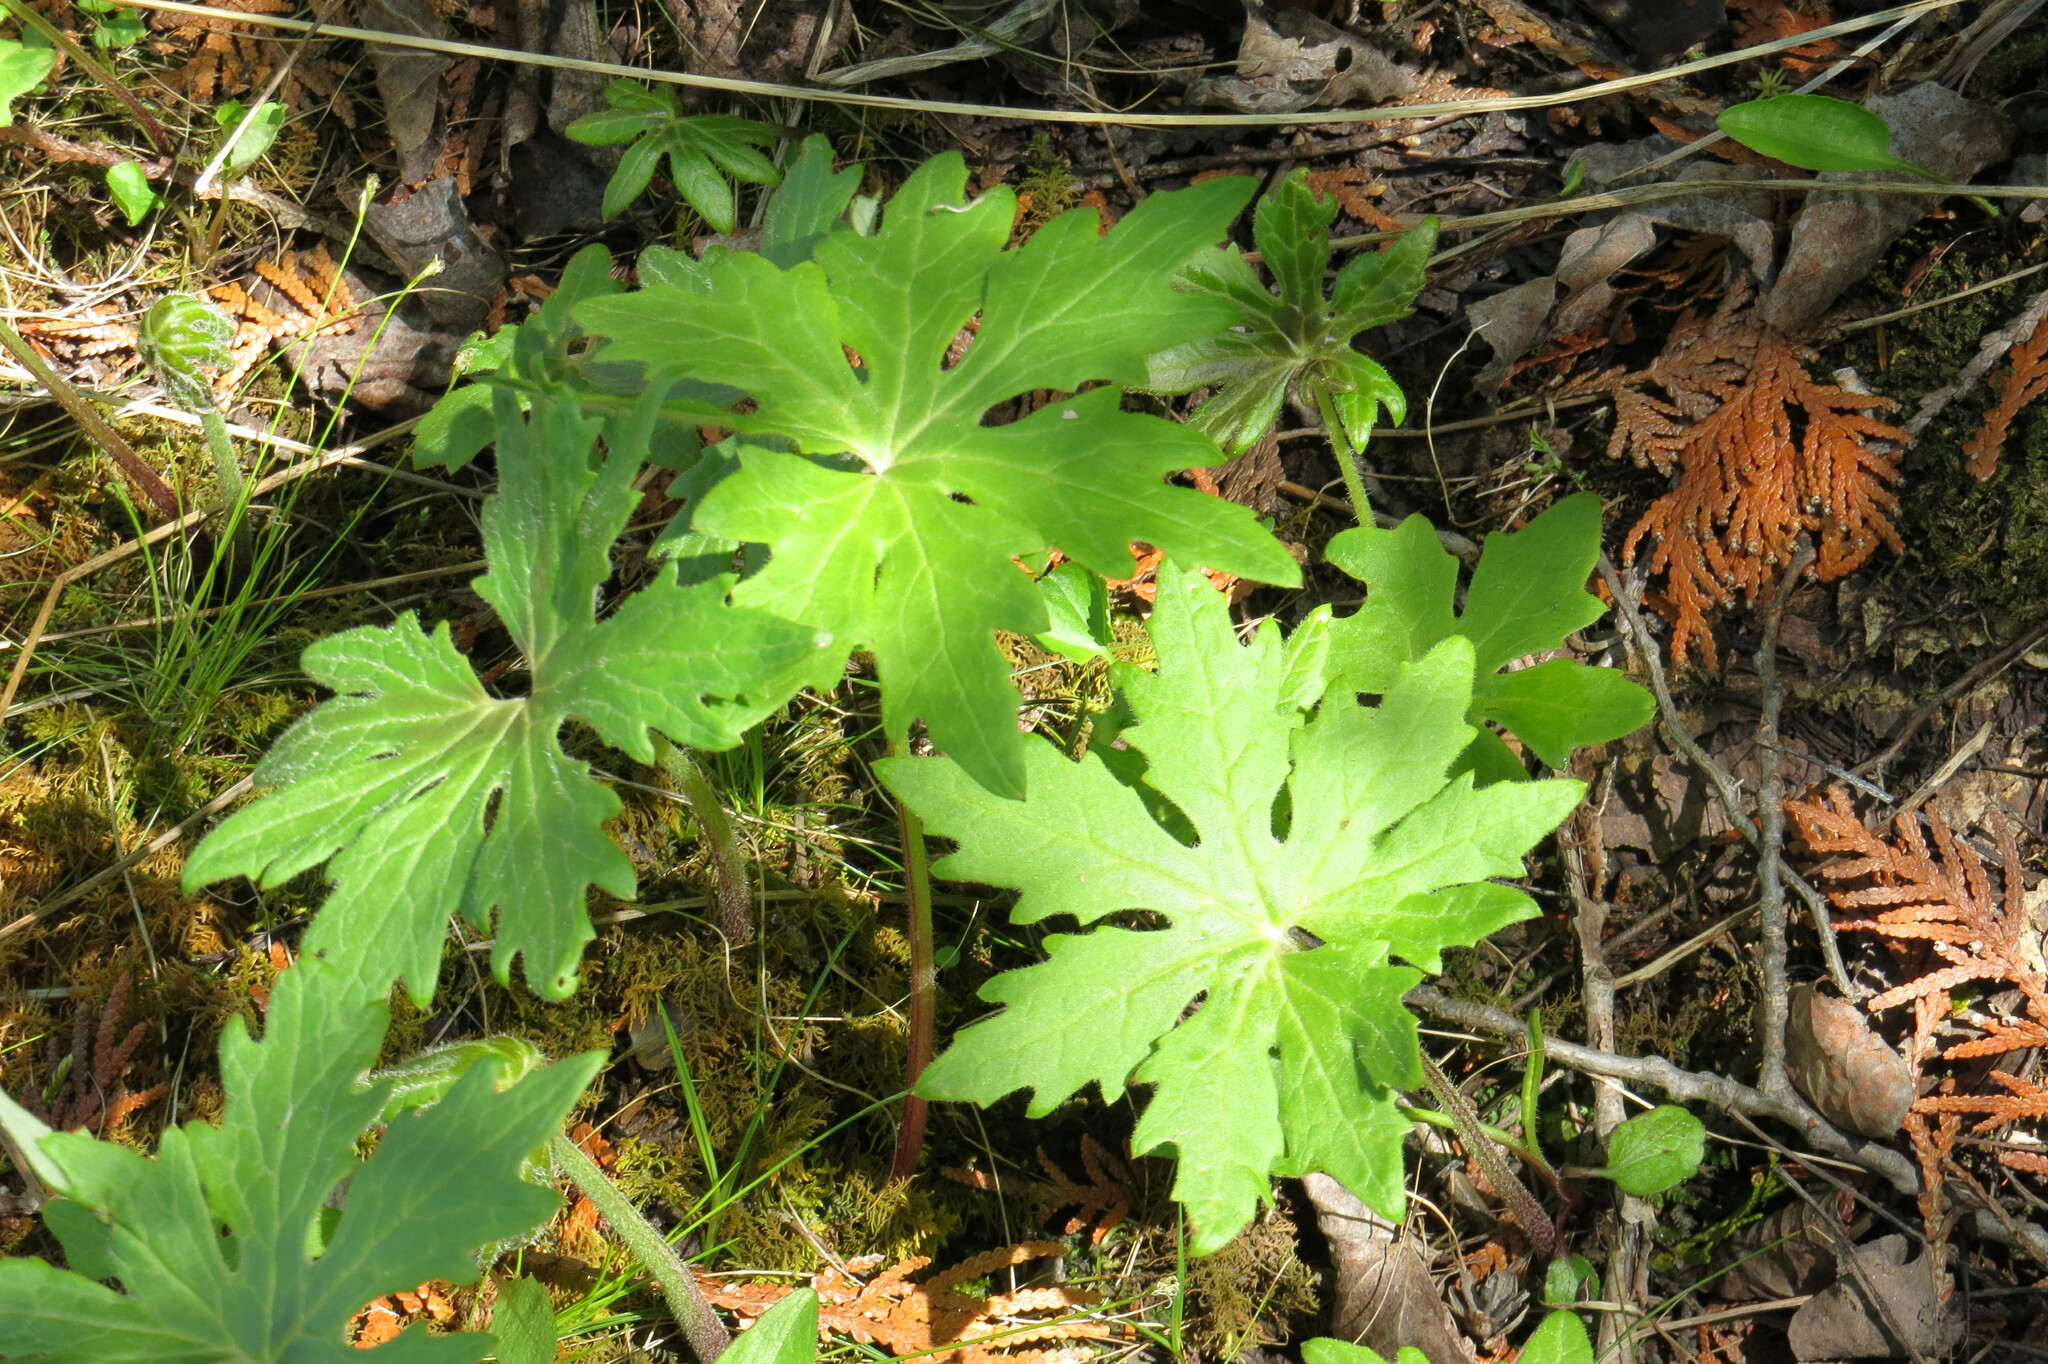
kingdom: Plantae
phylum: Tracheophyta
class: Magnoliopsida
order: Asterales
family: Asteraceae
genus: Petasites
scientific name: Petasites frigidus
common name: Arctic butterbur
